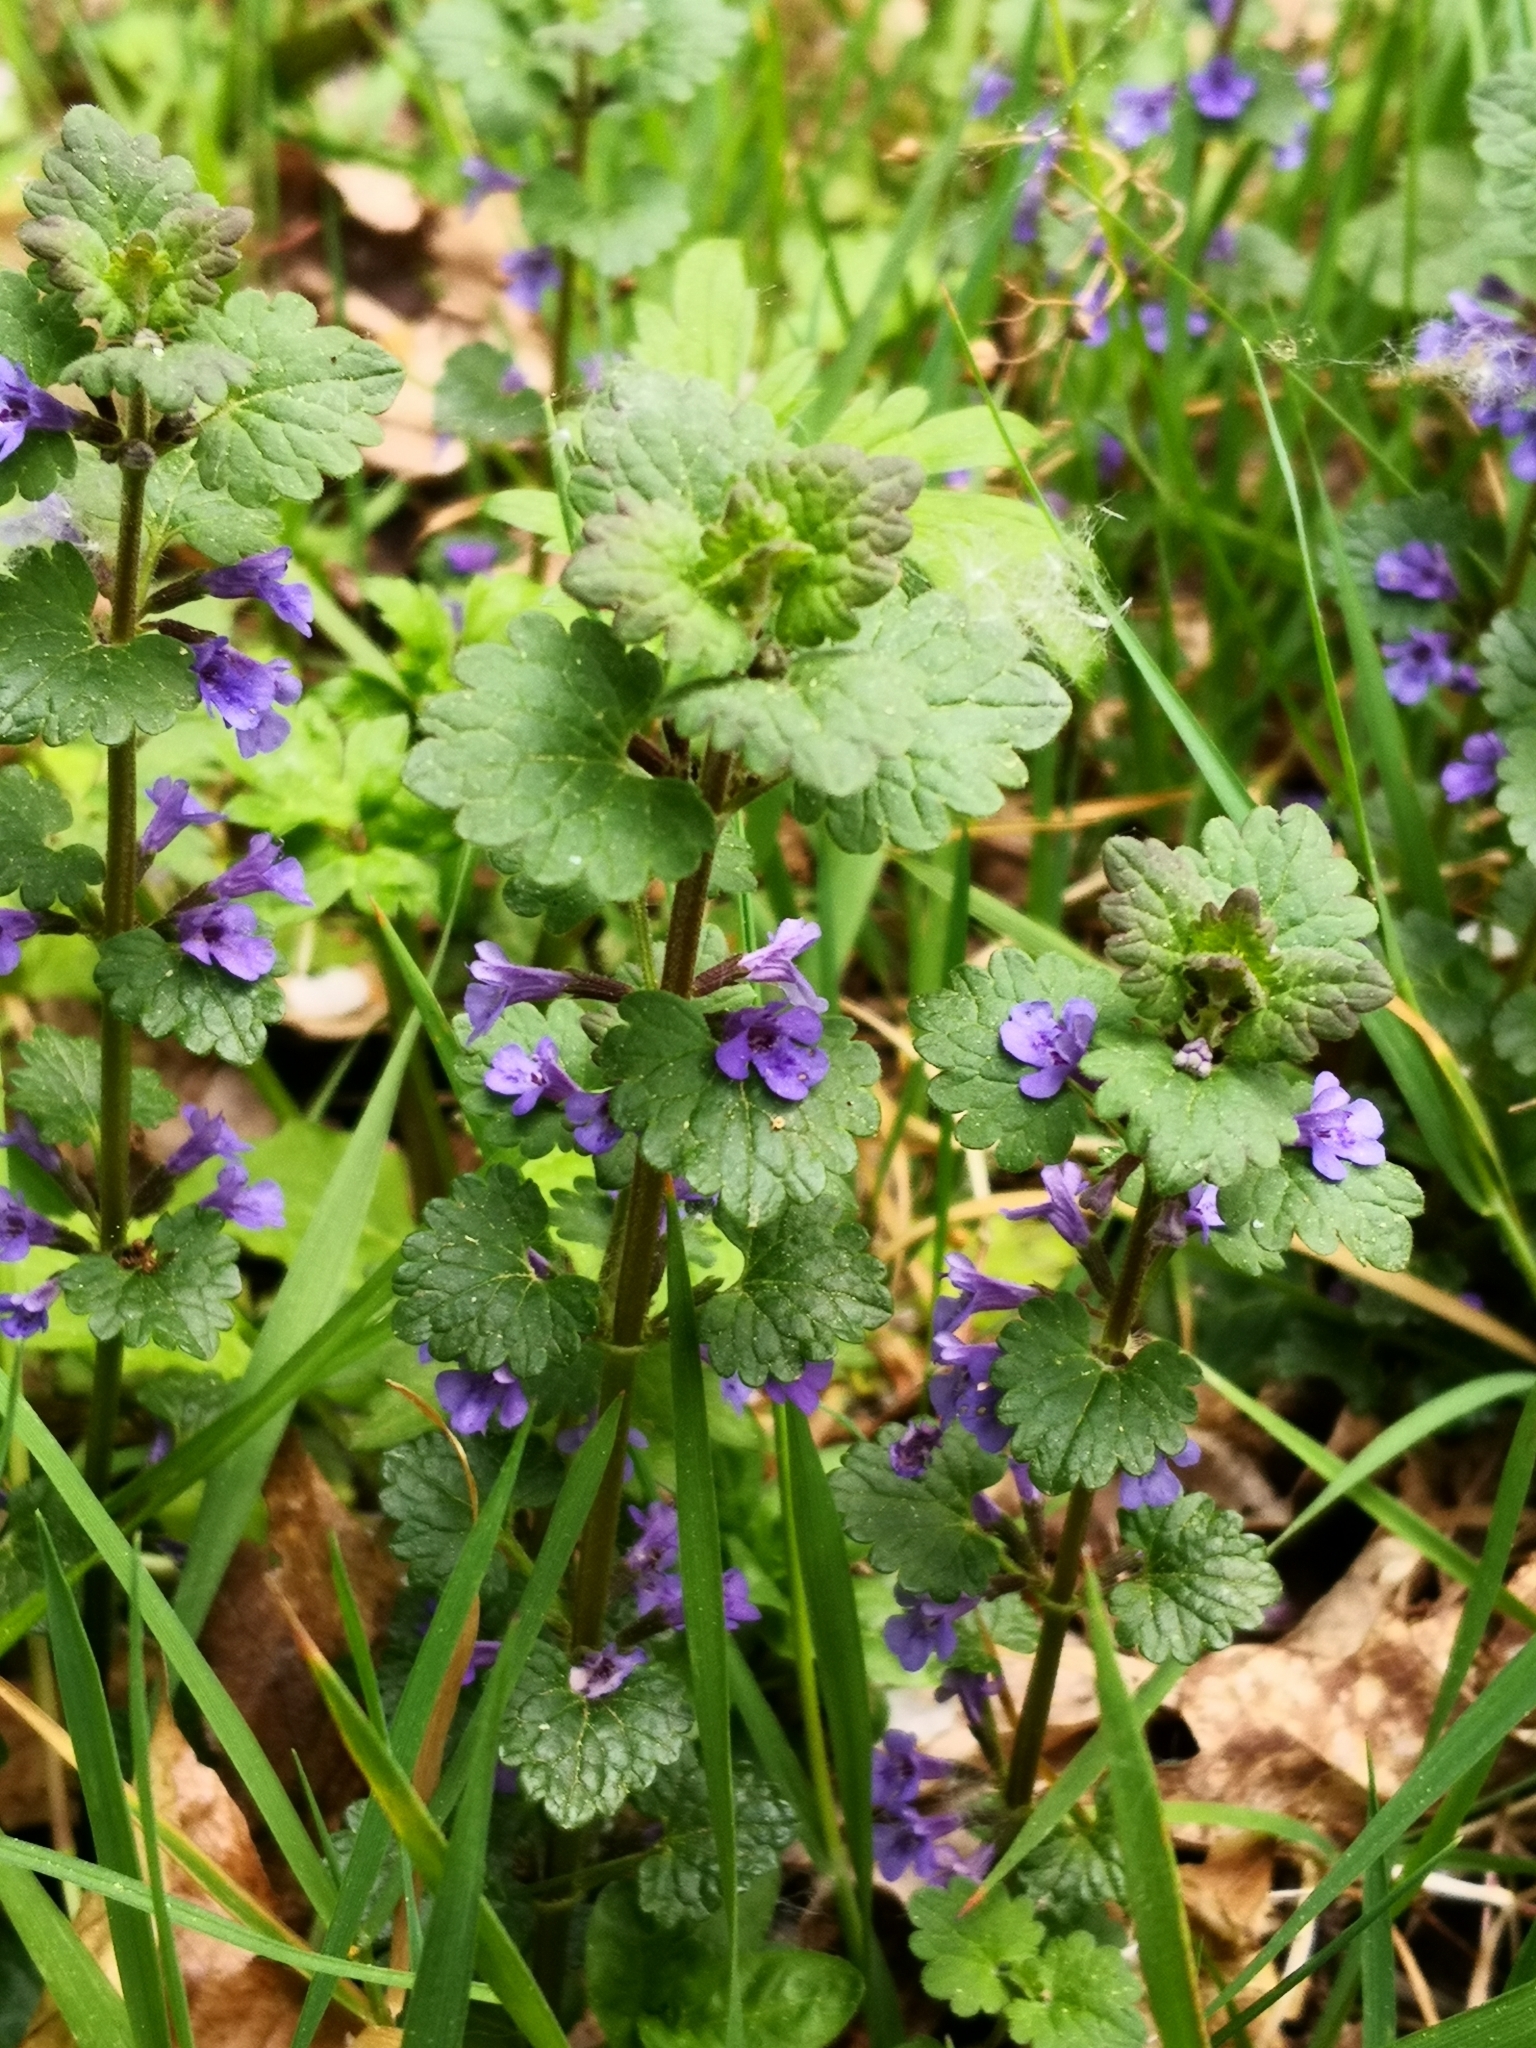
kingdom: Plantae
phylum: Tracheophyta
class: Magnoliopsida
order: Lamiales
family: Lamiaceae
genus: Glechoma
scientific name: Glechoma hederacea
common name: Ground ivy
